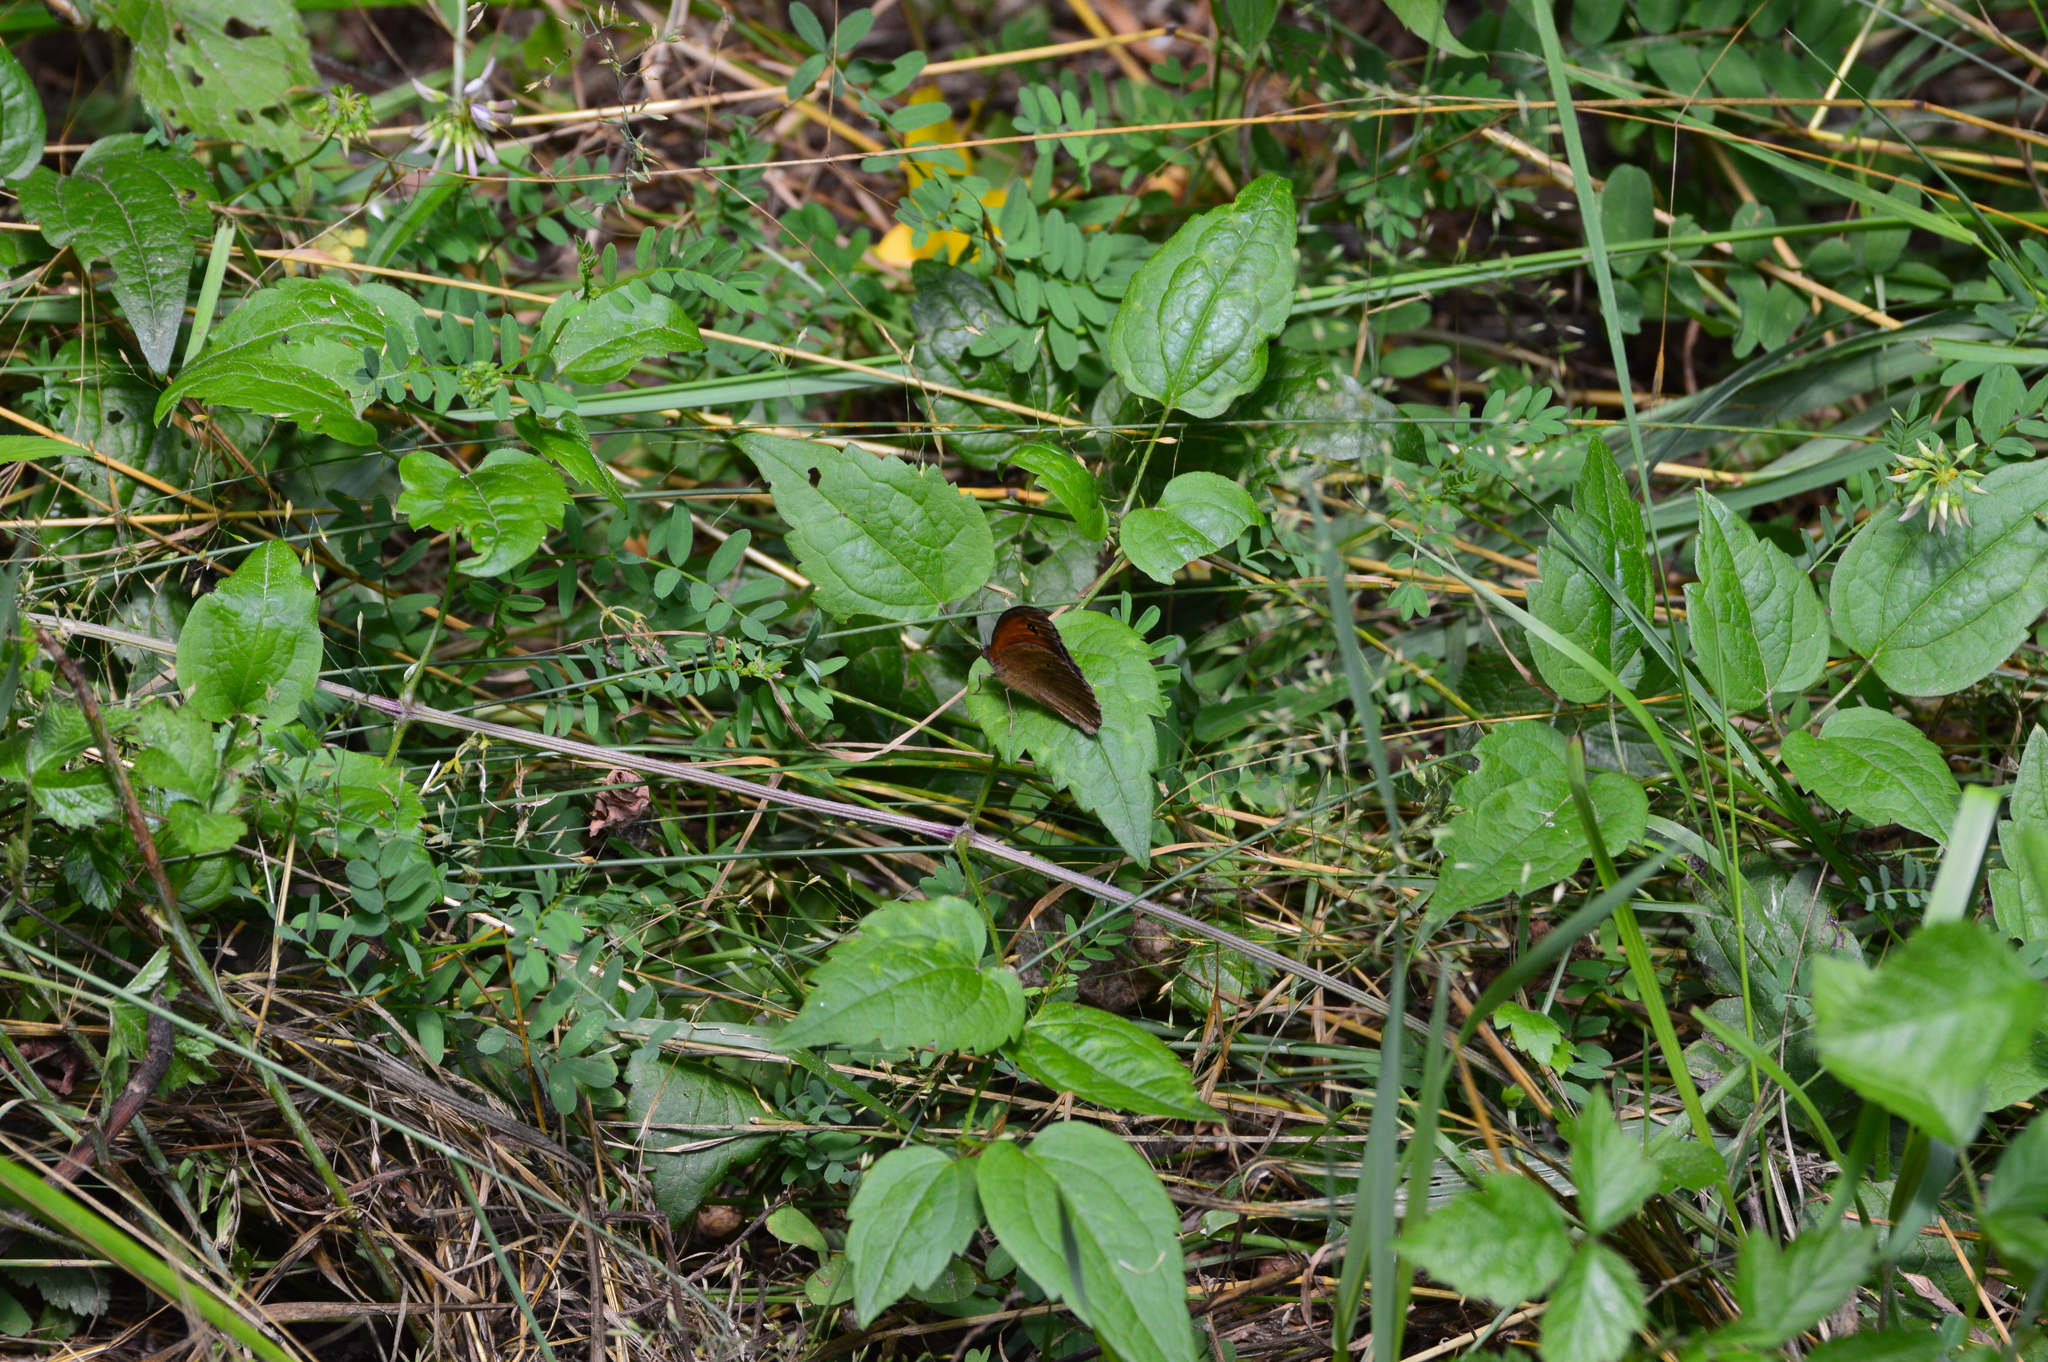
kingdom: Animalia
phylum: Arthropoda
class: Insecta
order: Lepidoptera
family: Nymphalidae
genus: Maniola
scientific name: Maniola jurtina
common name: Meadow brown
